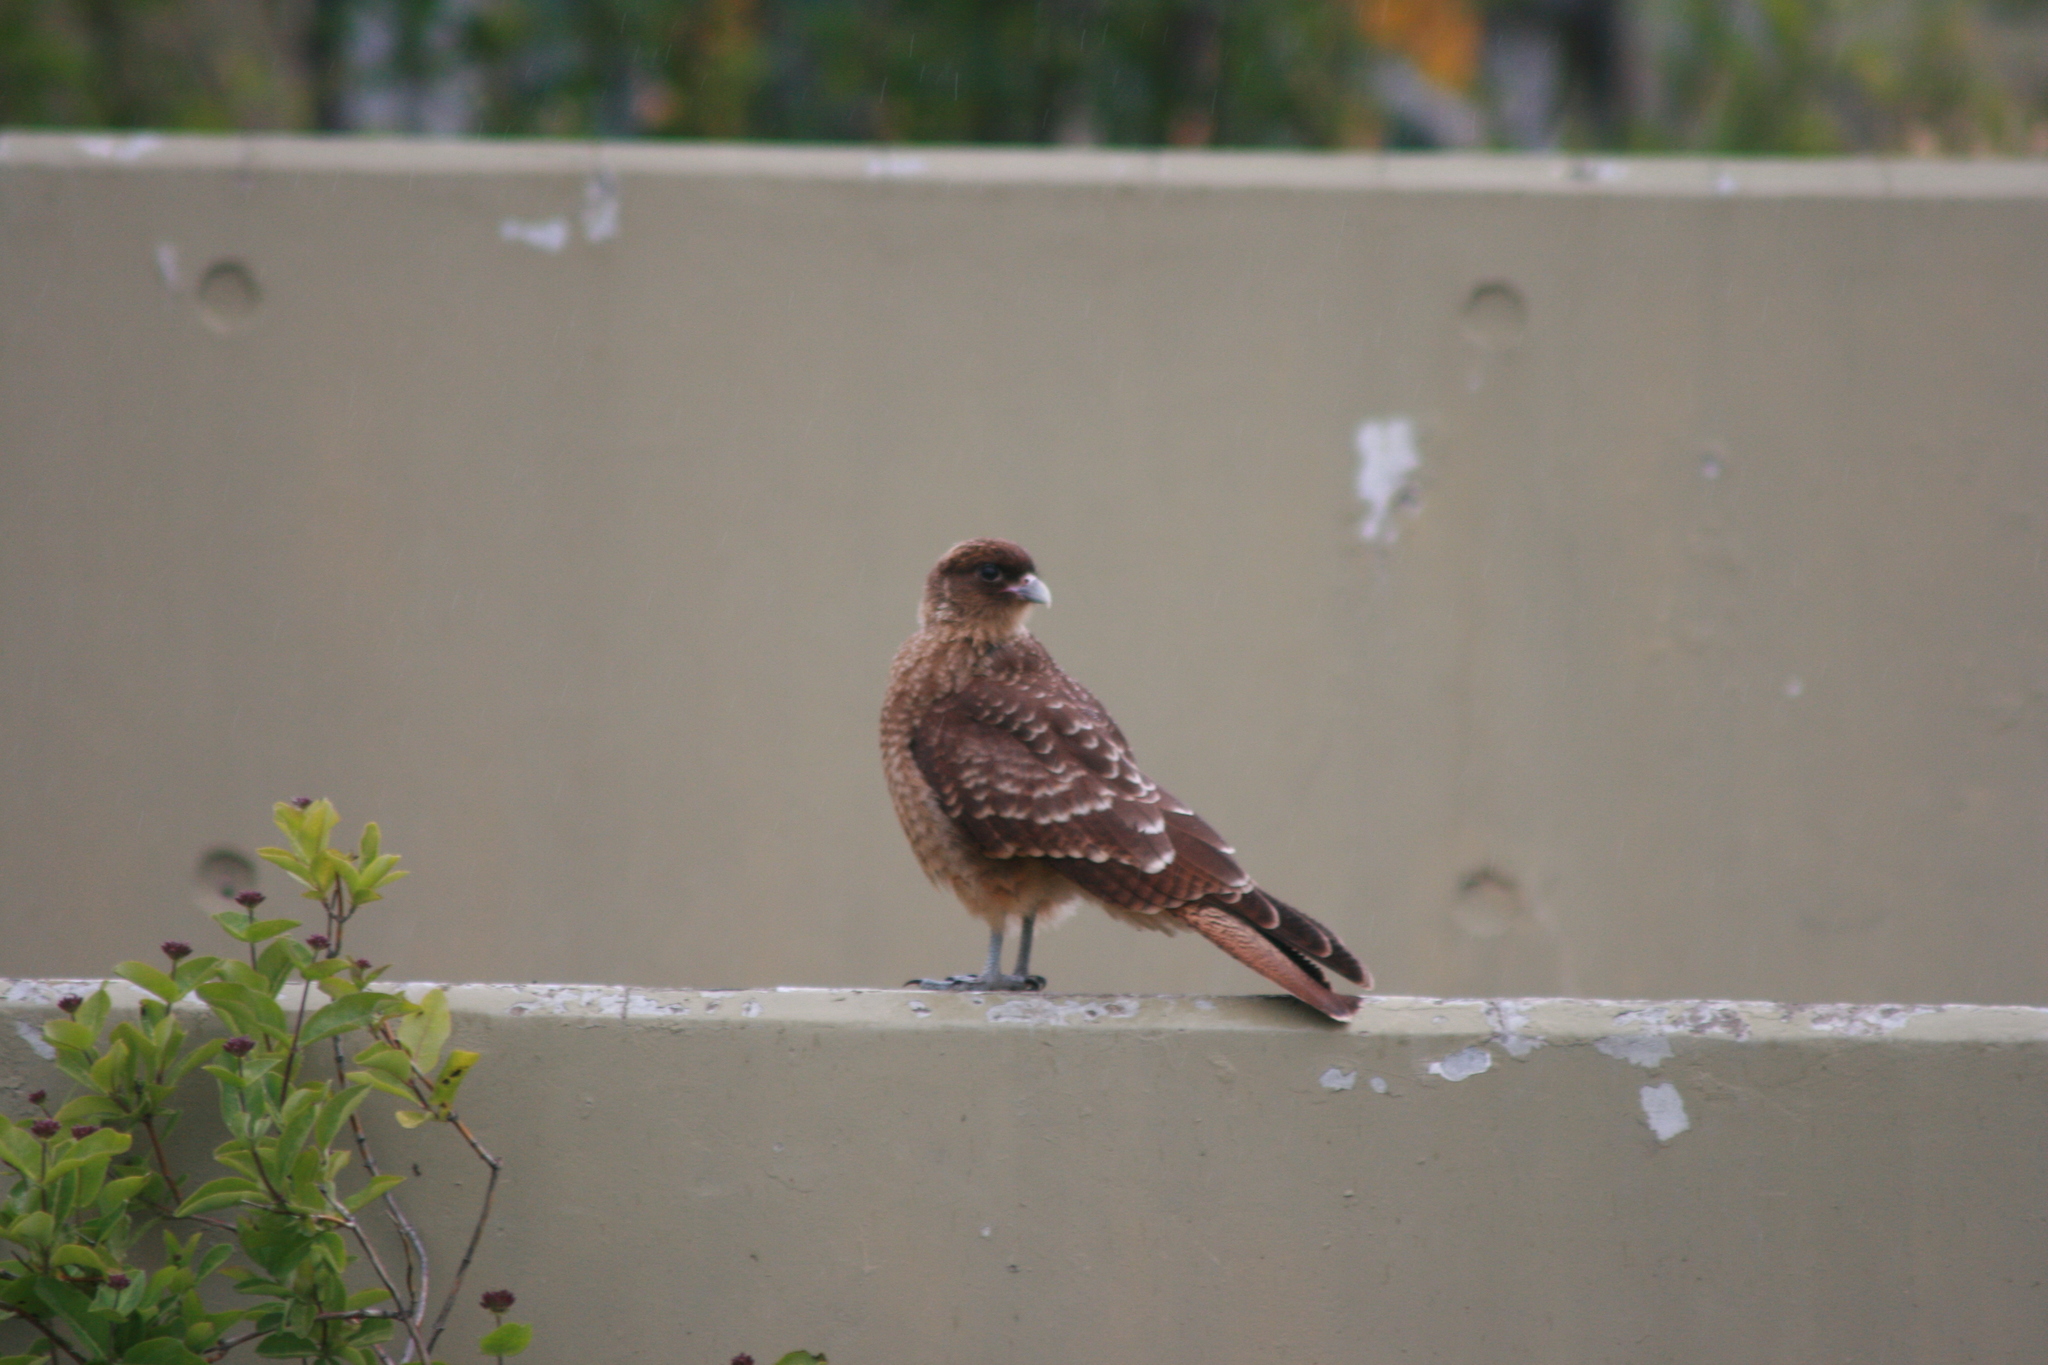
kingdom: Animalia
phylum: Chordata
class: Aves
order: Falconiformes
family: Falconidae
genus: Daptrius
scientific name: Daptrius
